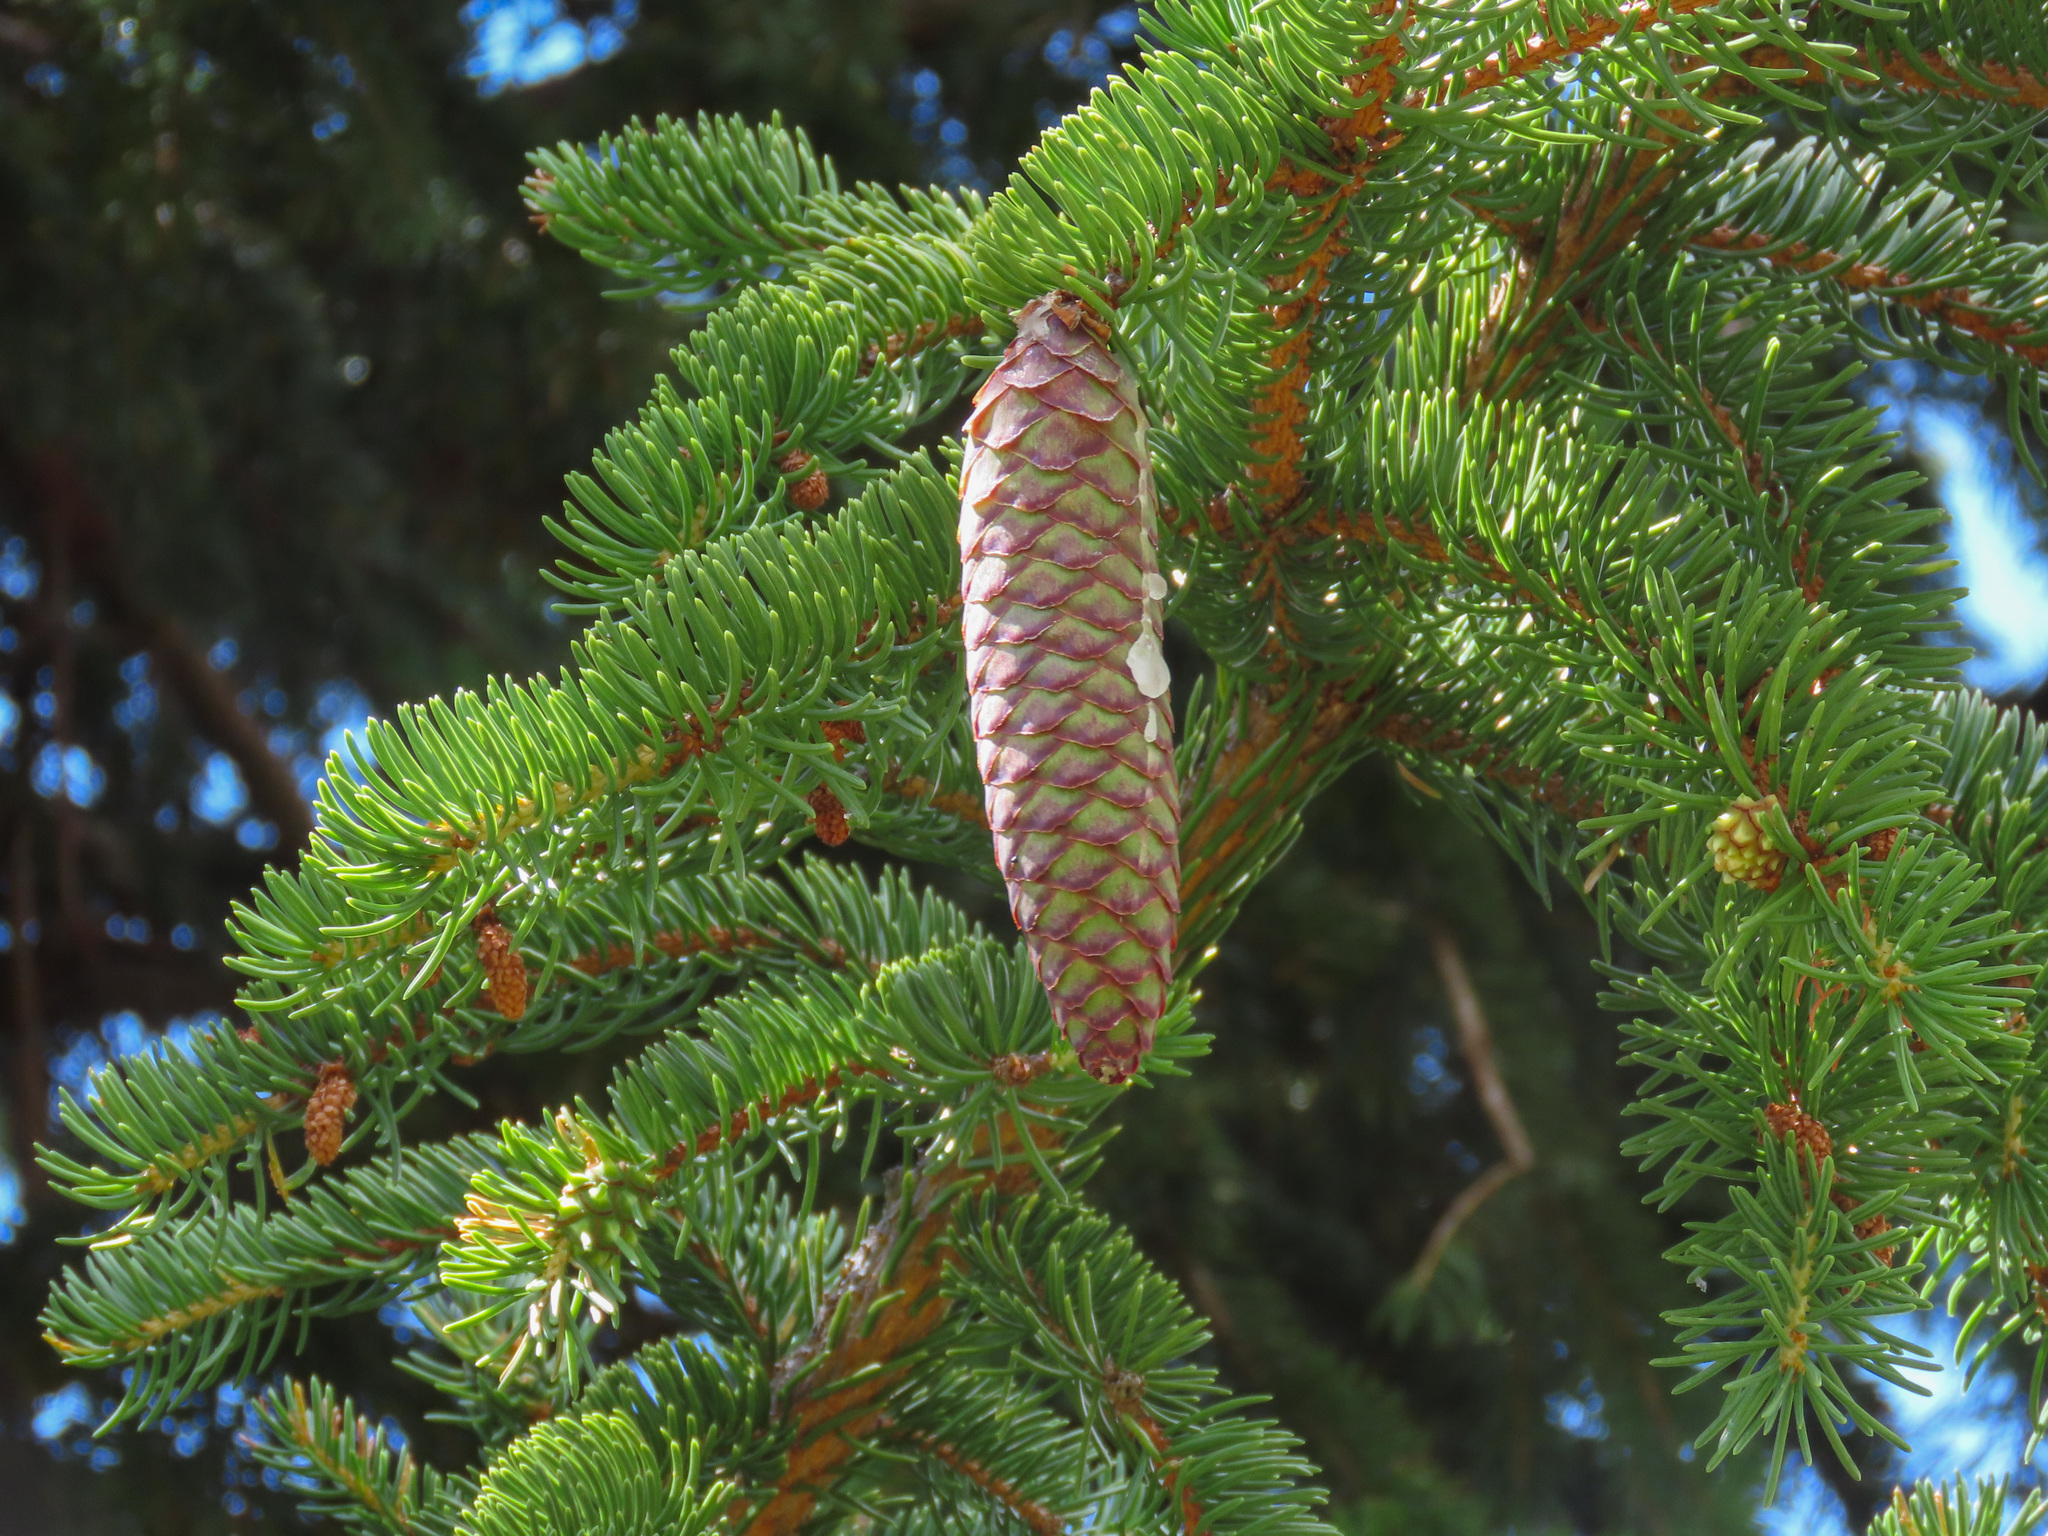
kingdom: Plantae
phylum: Tracheophyta
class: Pinopsida
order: Pinales
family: Pinaceae
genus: Picea
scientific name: Picea abies
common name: Norway spruce
